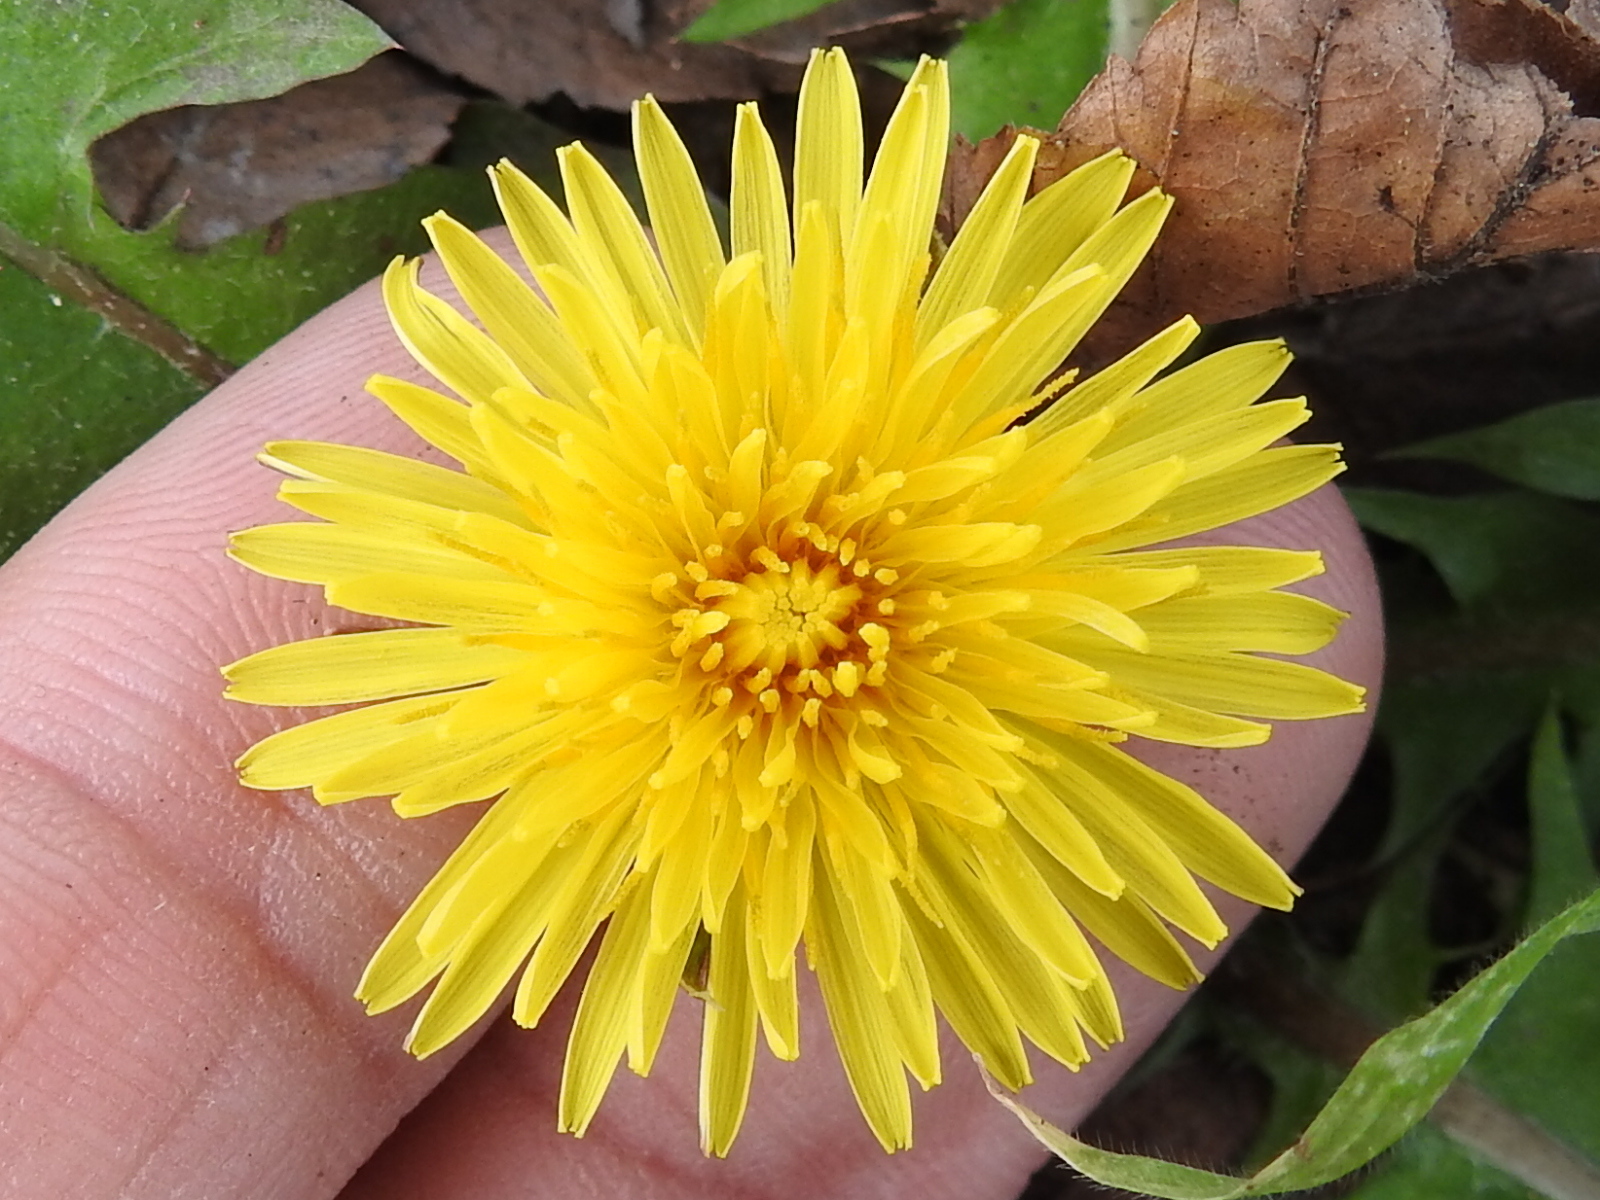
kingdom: Plantae
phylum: Tracheophyta
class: Magnoliopsida
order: Asterales
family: Asteraceae
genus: Taraxacum
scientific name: Taraxacum officinale
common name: Common dandelion
